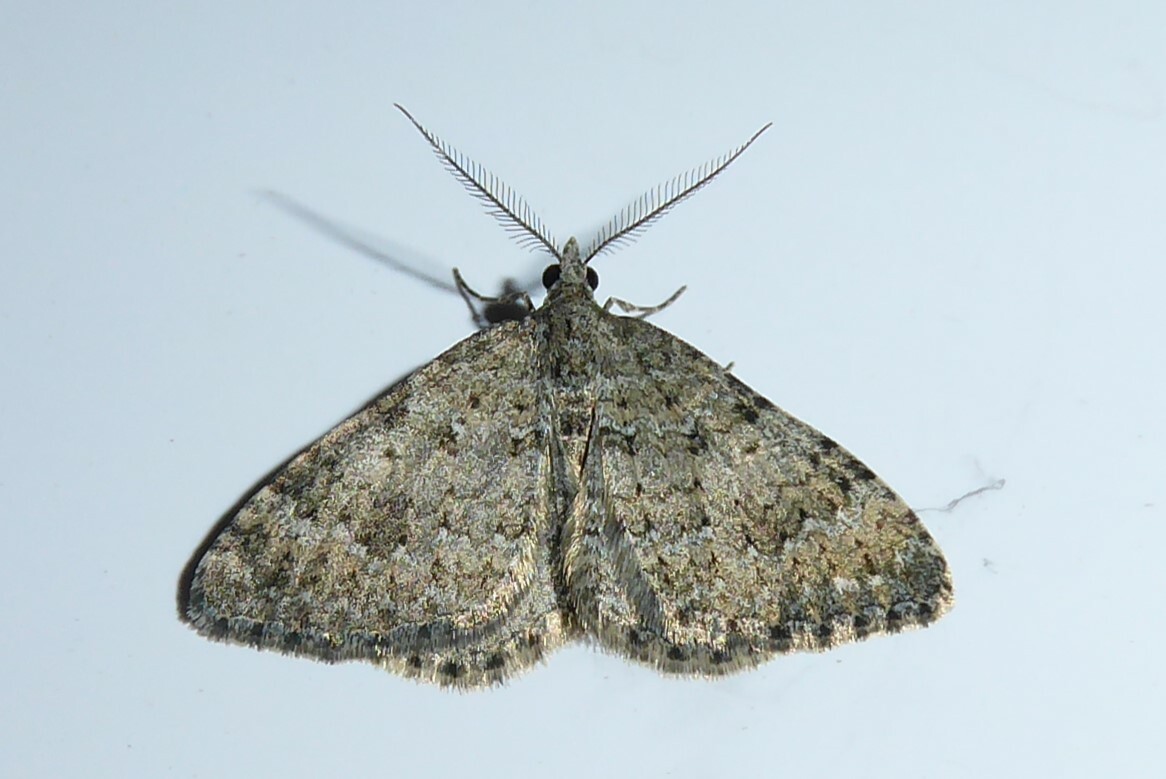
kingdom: Animalia
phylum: Arthropoda
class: Insecta
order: Lepidoptera
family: Geometridae
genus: Helastia
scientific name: Helastia corcularia
